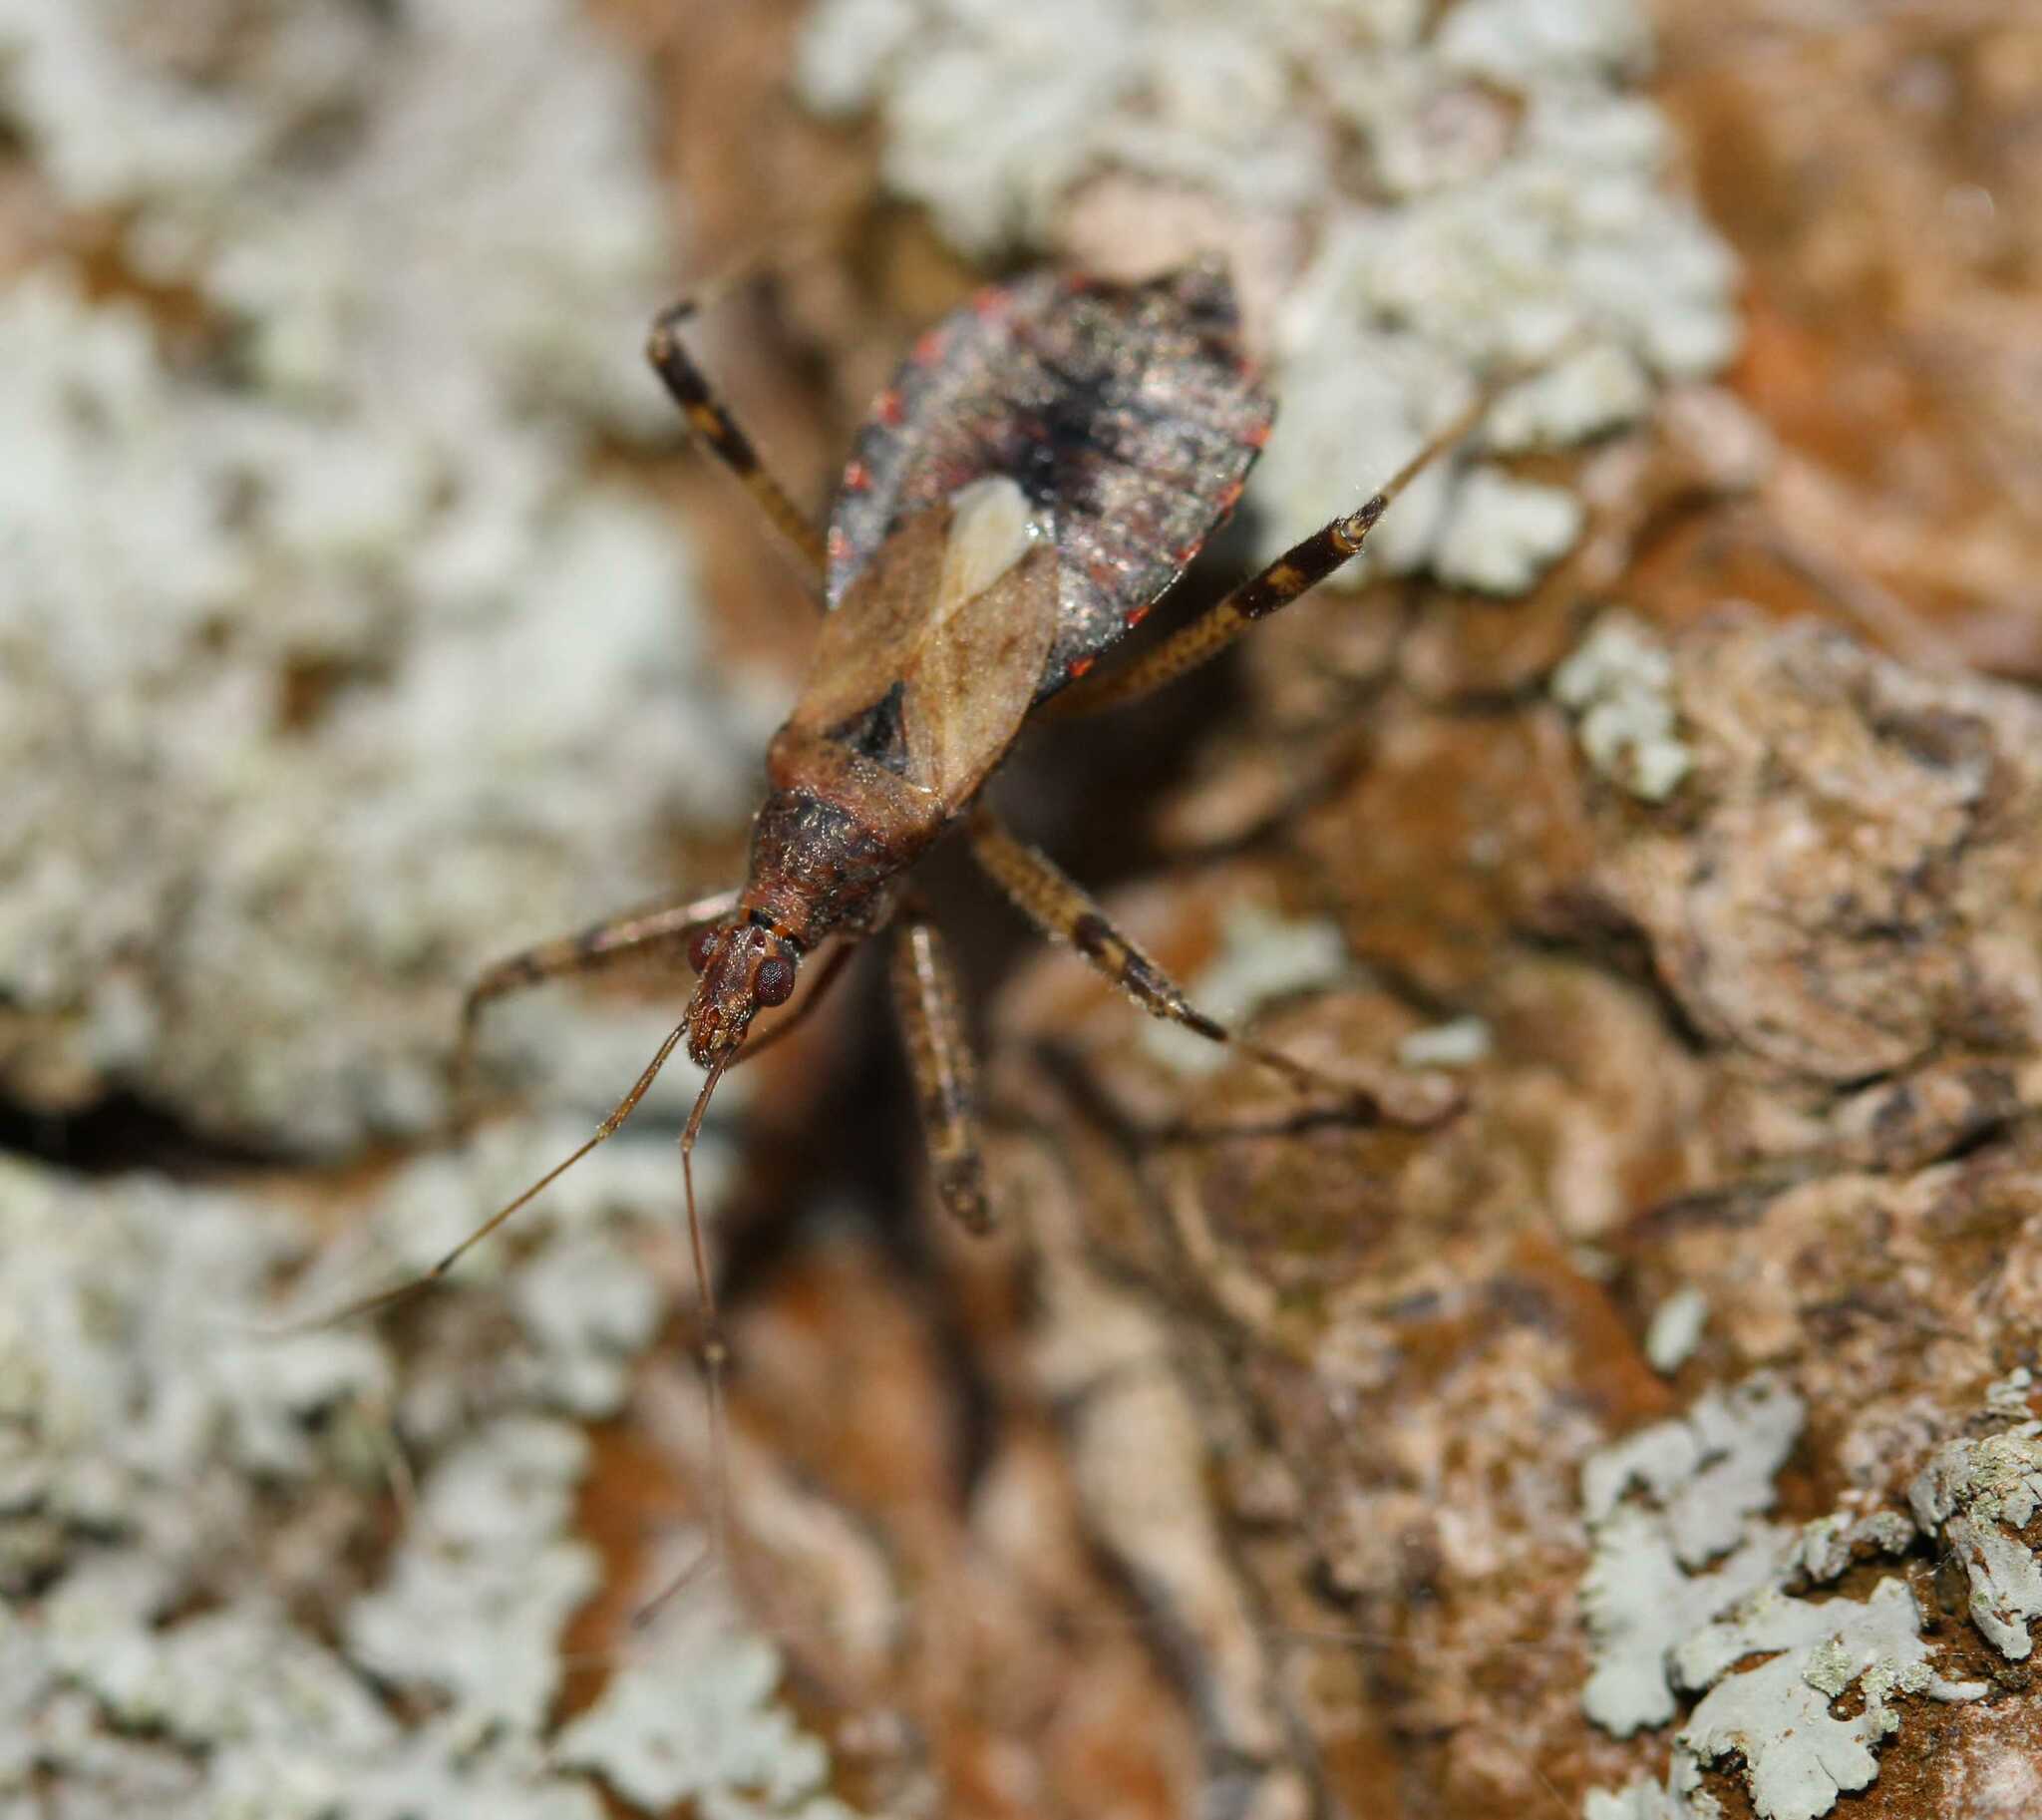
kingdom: Animalia
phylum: Arthropoda
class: Insecta
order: Hemiptera
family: Nabidae
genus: Himacerus
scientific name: Himacerus apterus
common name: Tree damsel bug
